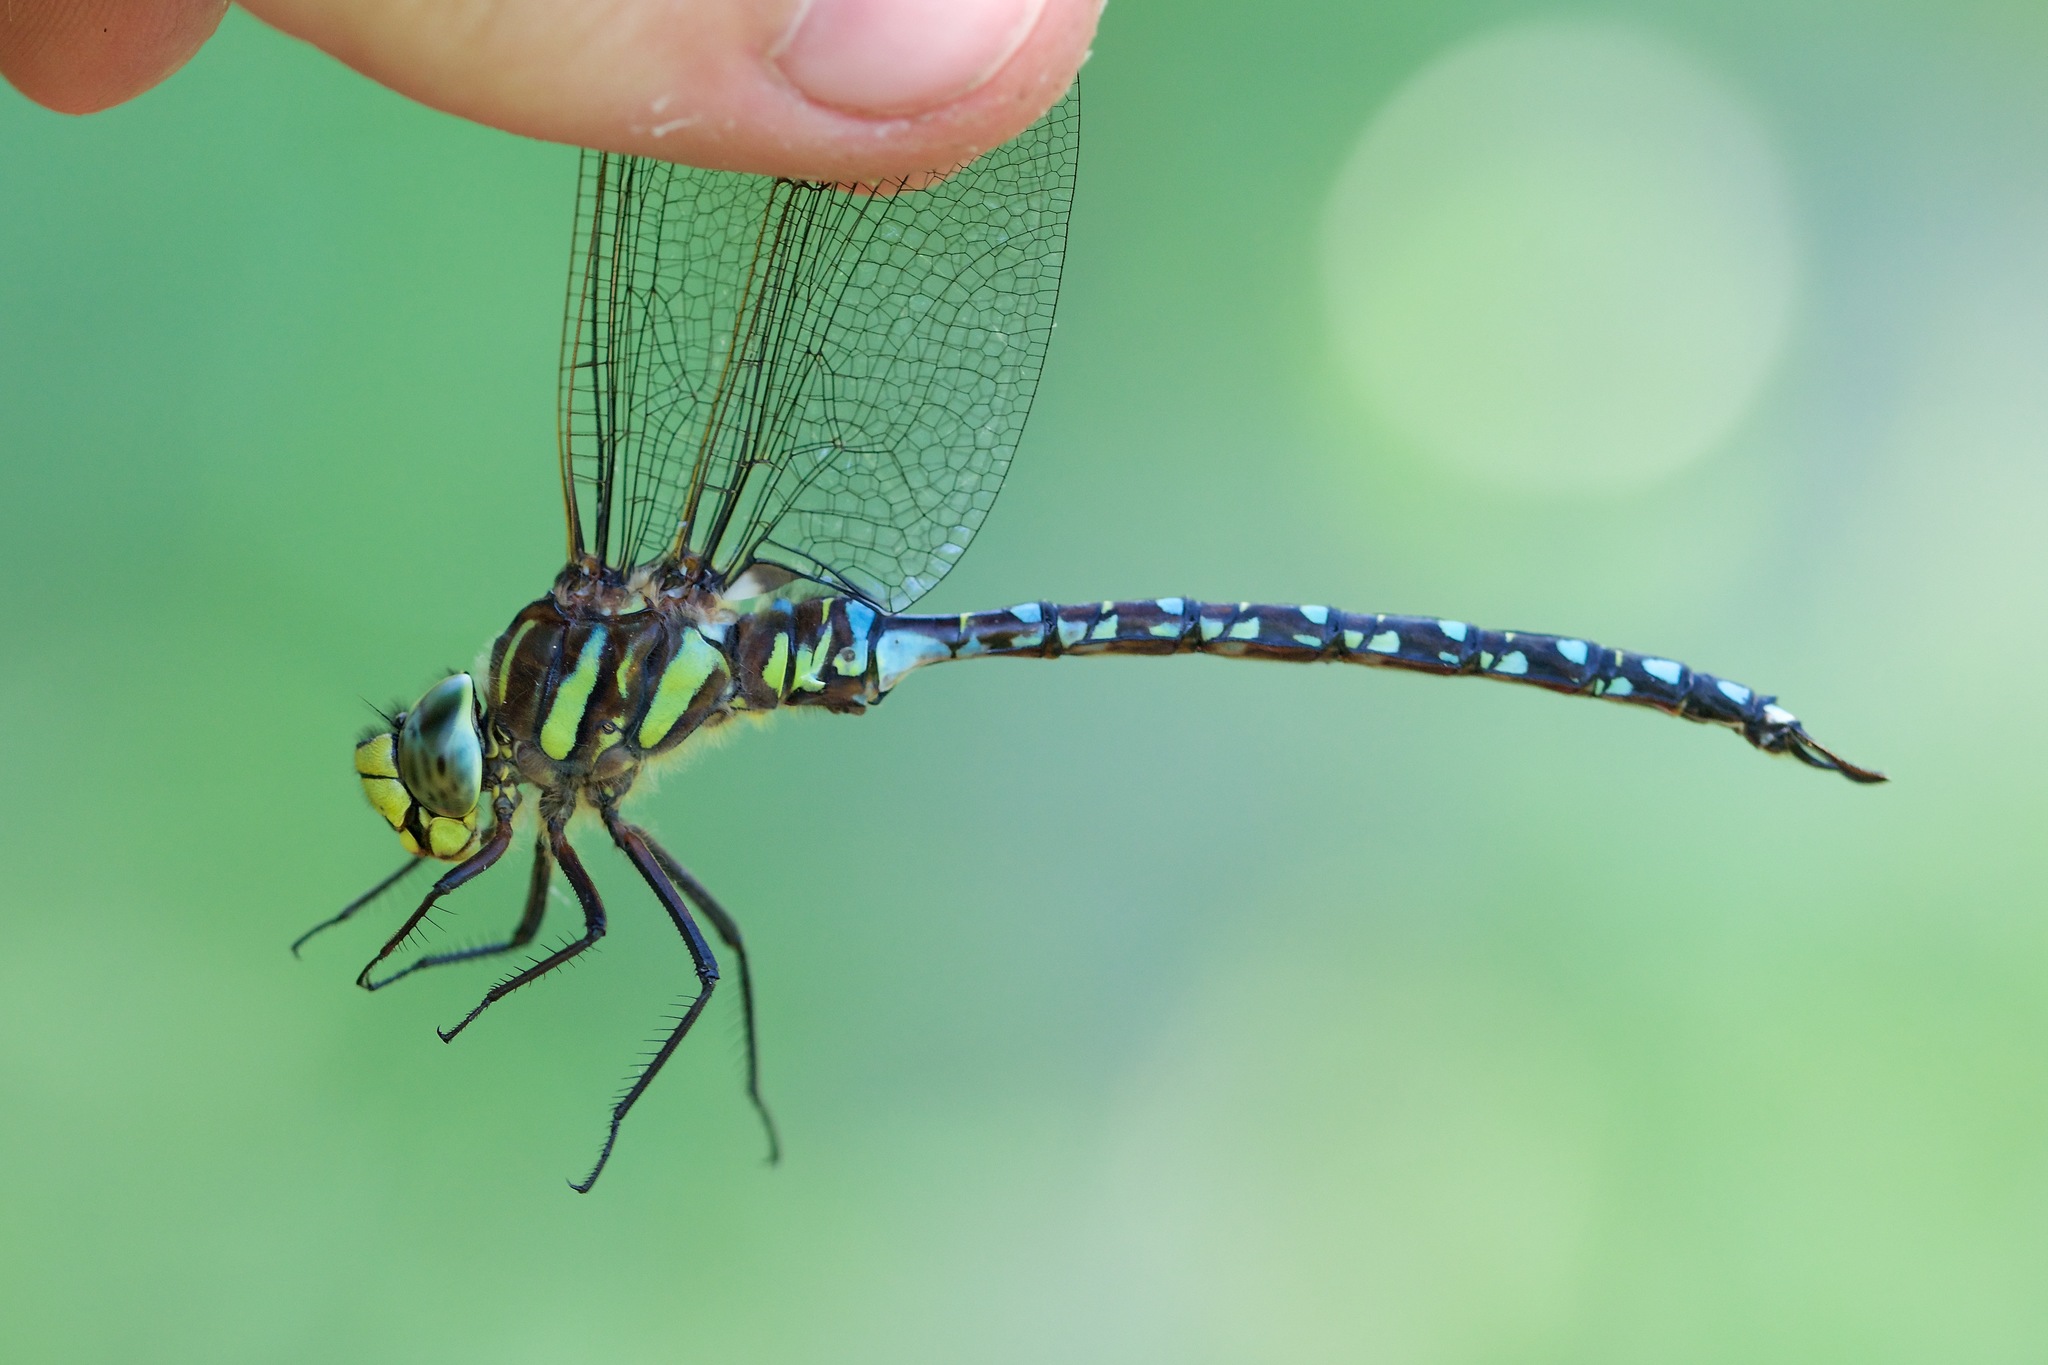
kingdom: Animalia
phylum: Arthropoda
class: Insecta
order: Odonata
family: Aeshnidae
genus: Aeshna
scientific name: Aeshna juncea
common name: Moorland hawker
